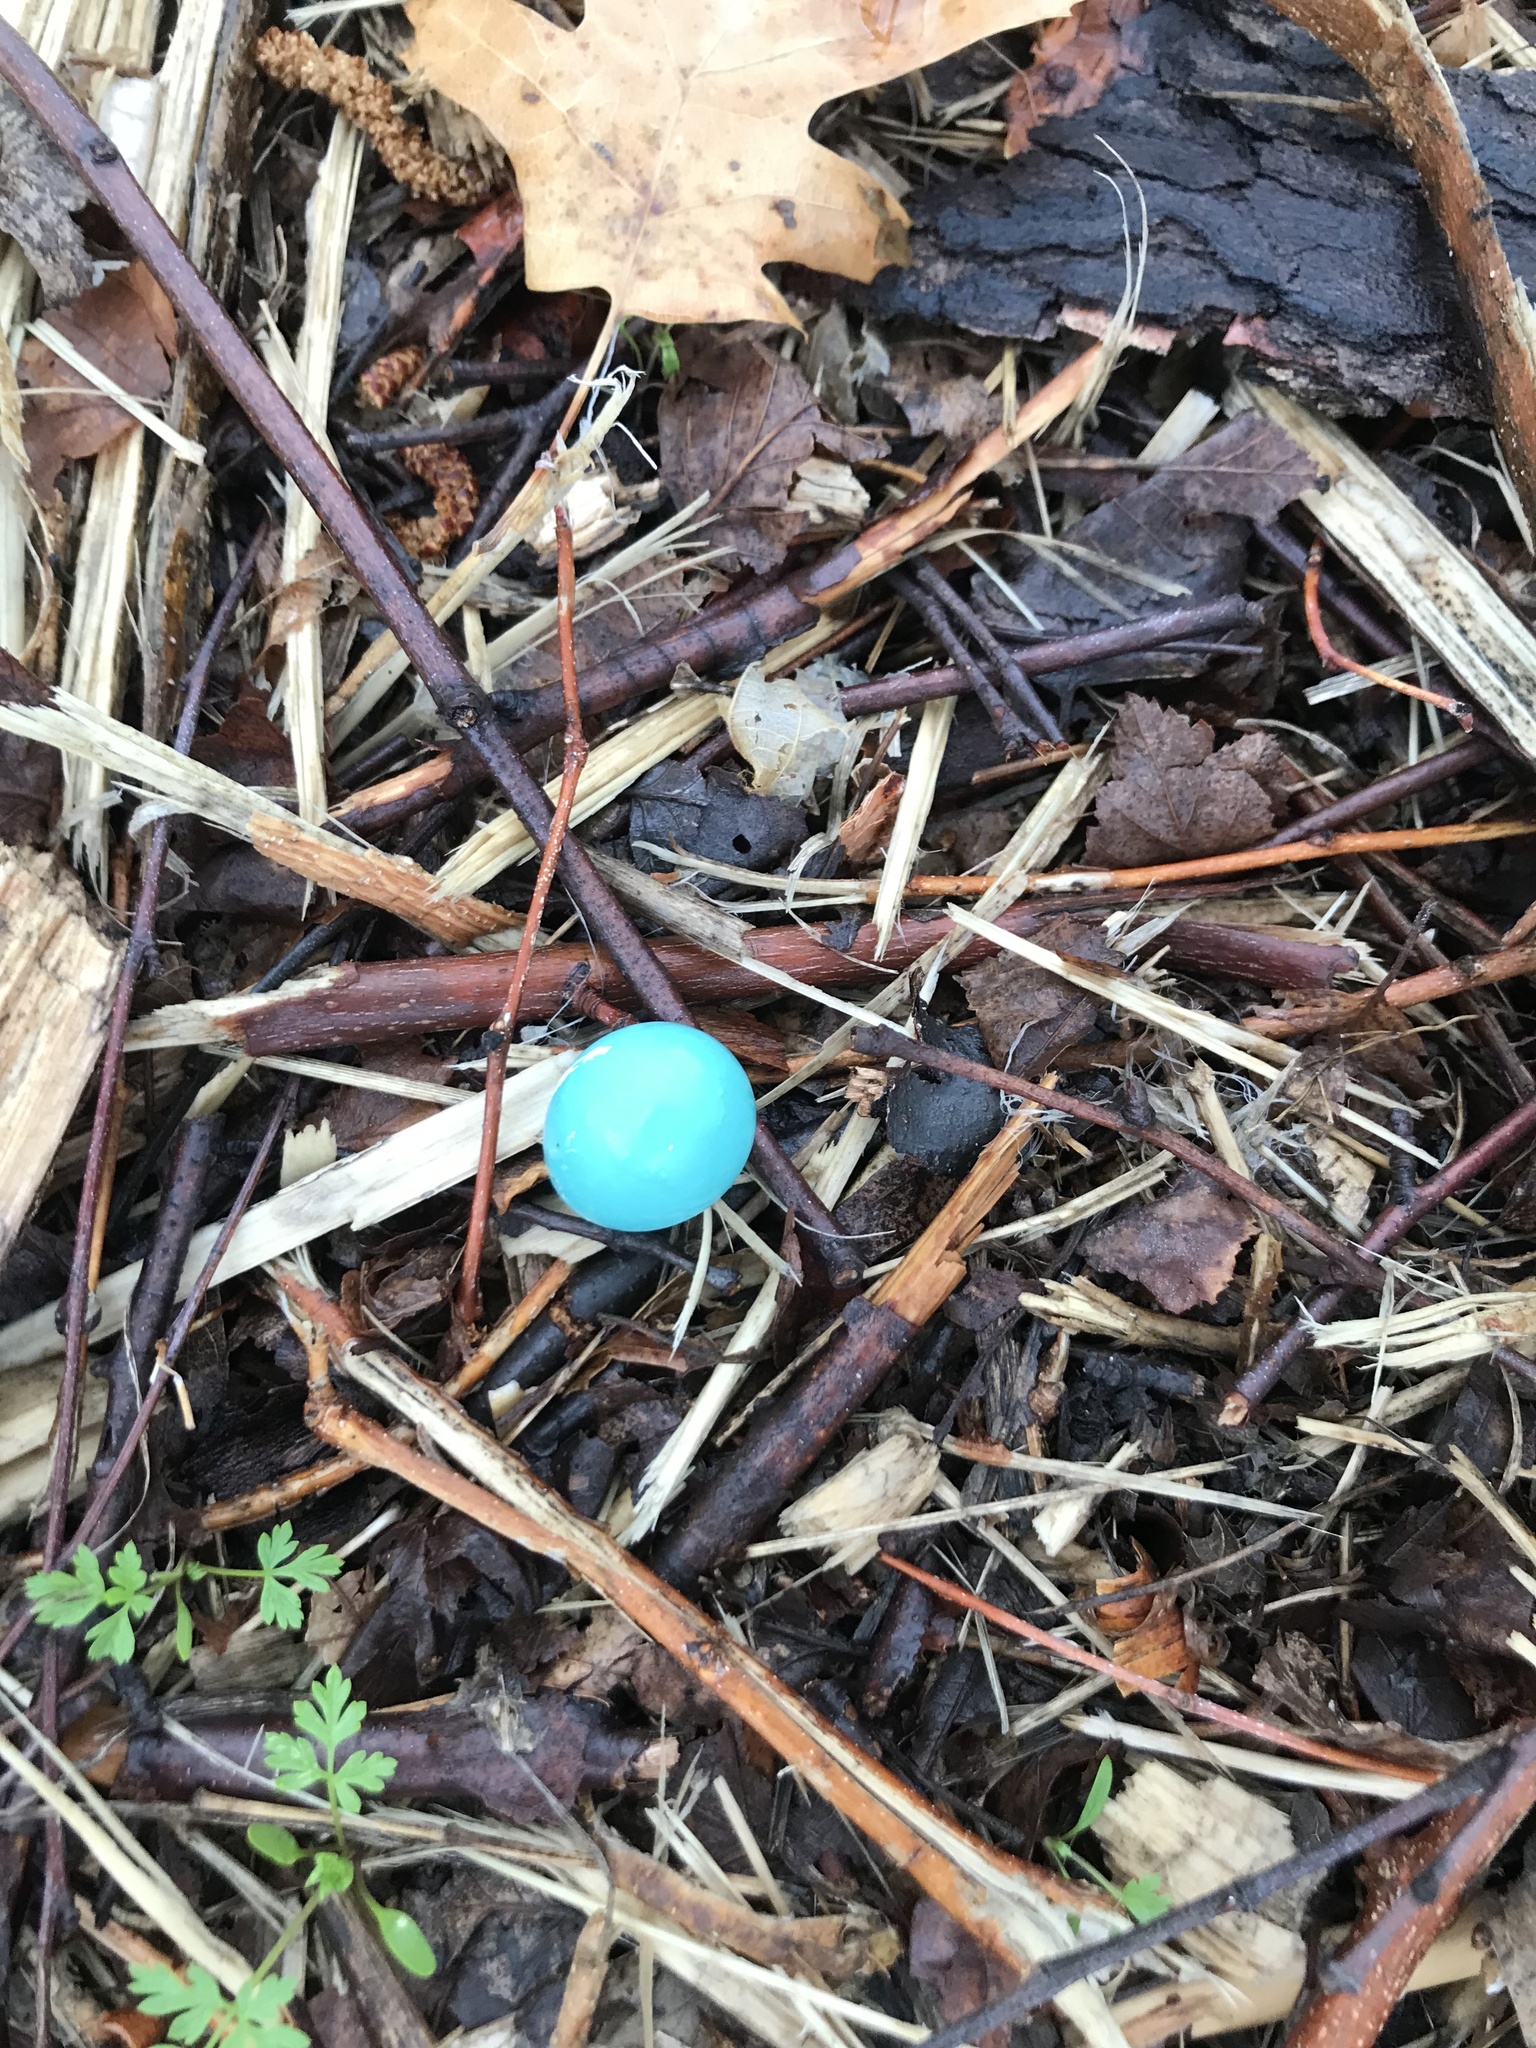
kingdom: Animalia
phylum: Chordata
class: Aves
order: Passeriformes
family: Turdidae
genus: Turdus
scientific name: Turdus migratorius
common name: American robin
